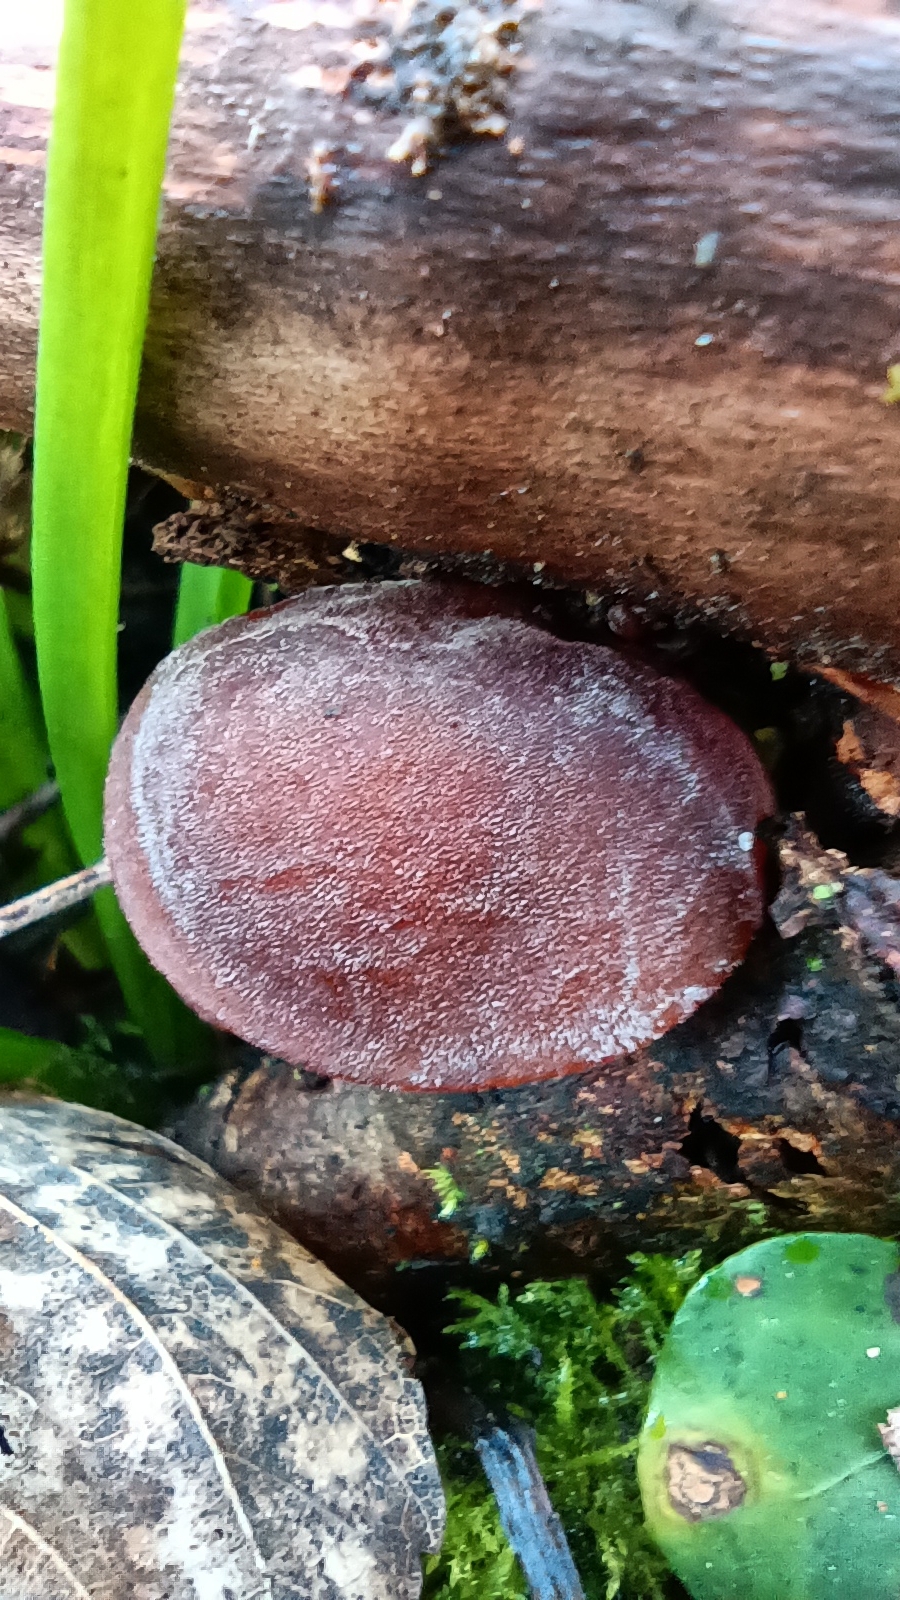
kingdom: Fungi
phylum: Basidiomycota
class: Agaricomycetes
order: Auriculariales
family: Auriculariaceae
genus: Auricularia
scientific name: Auricularia auricula-judae
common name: Jelly ear
